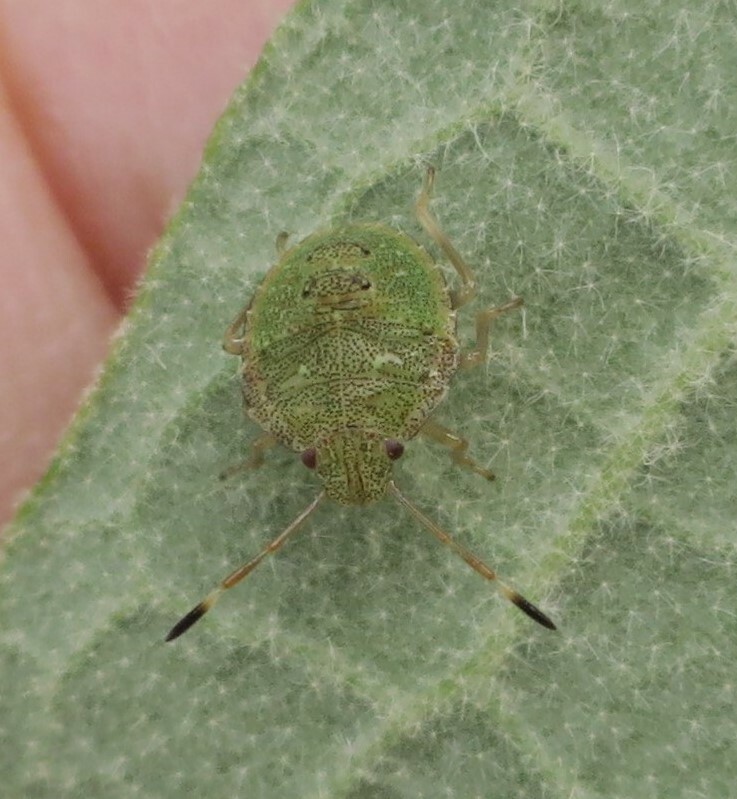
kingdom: Animalia
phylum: Arthropoda
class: Insecta
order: Hemiptera
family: Pentatomidae
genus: Cuspicona
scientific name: Cuspicona simplex
